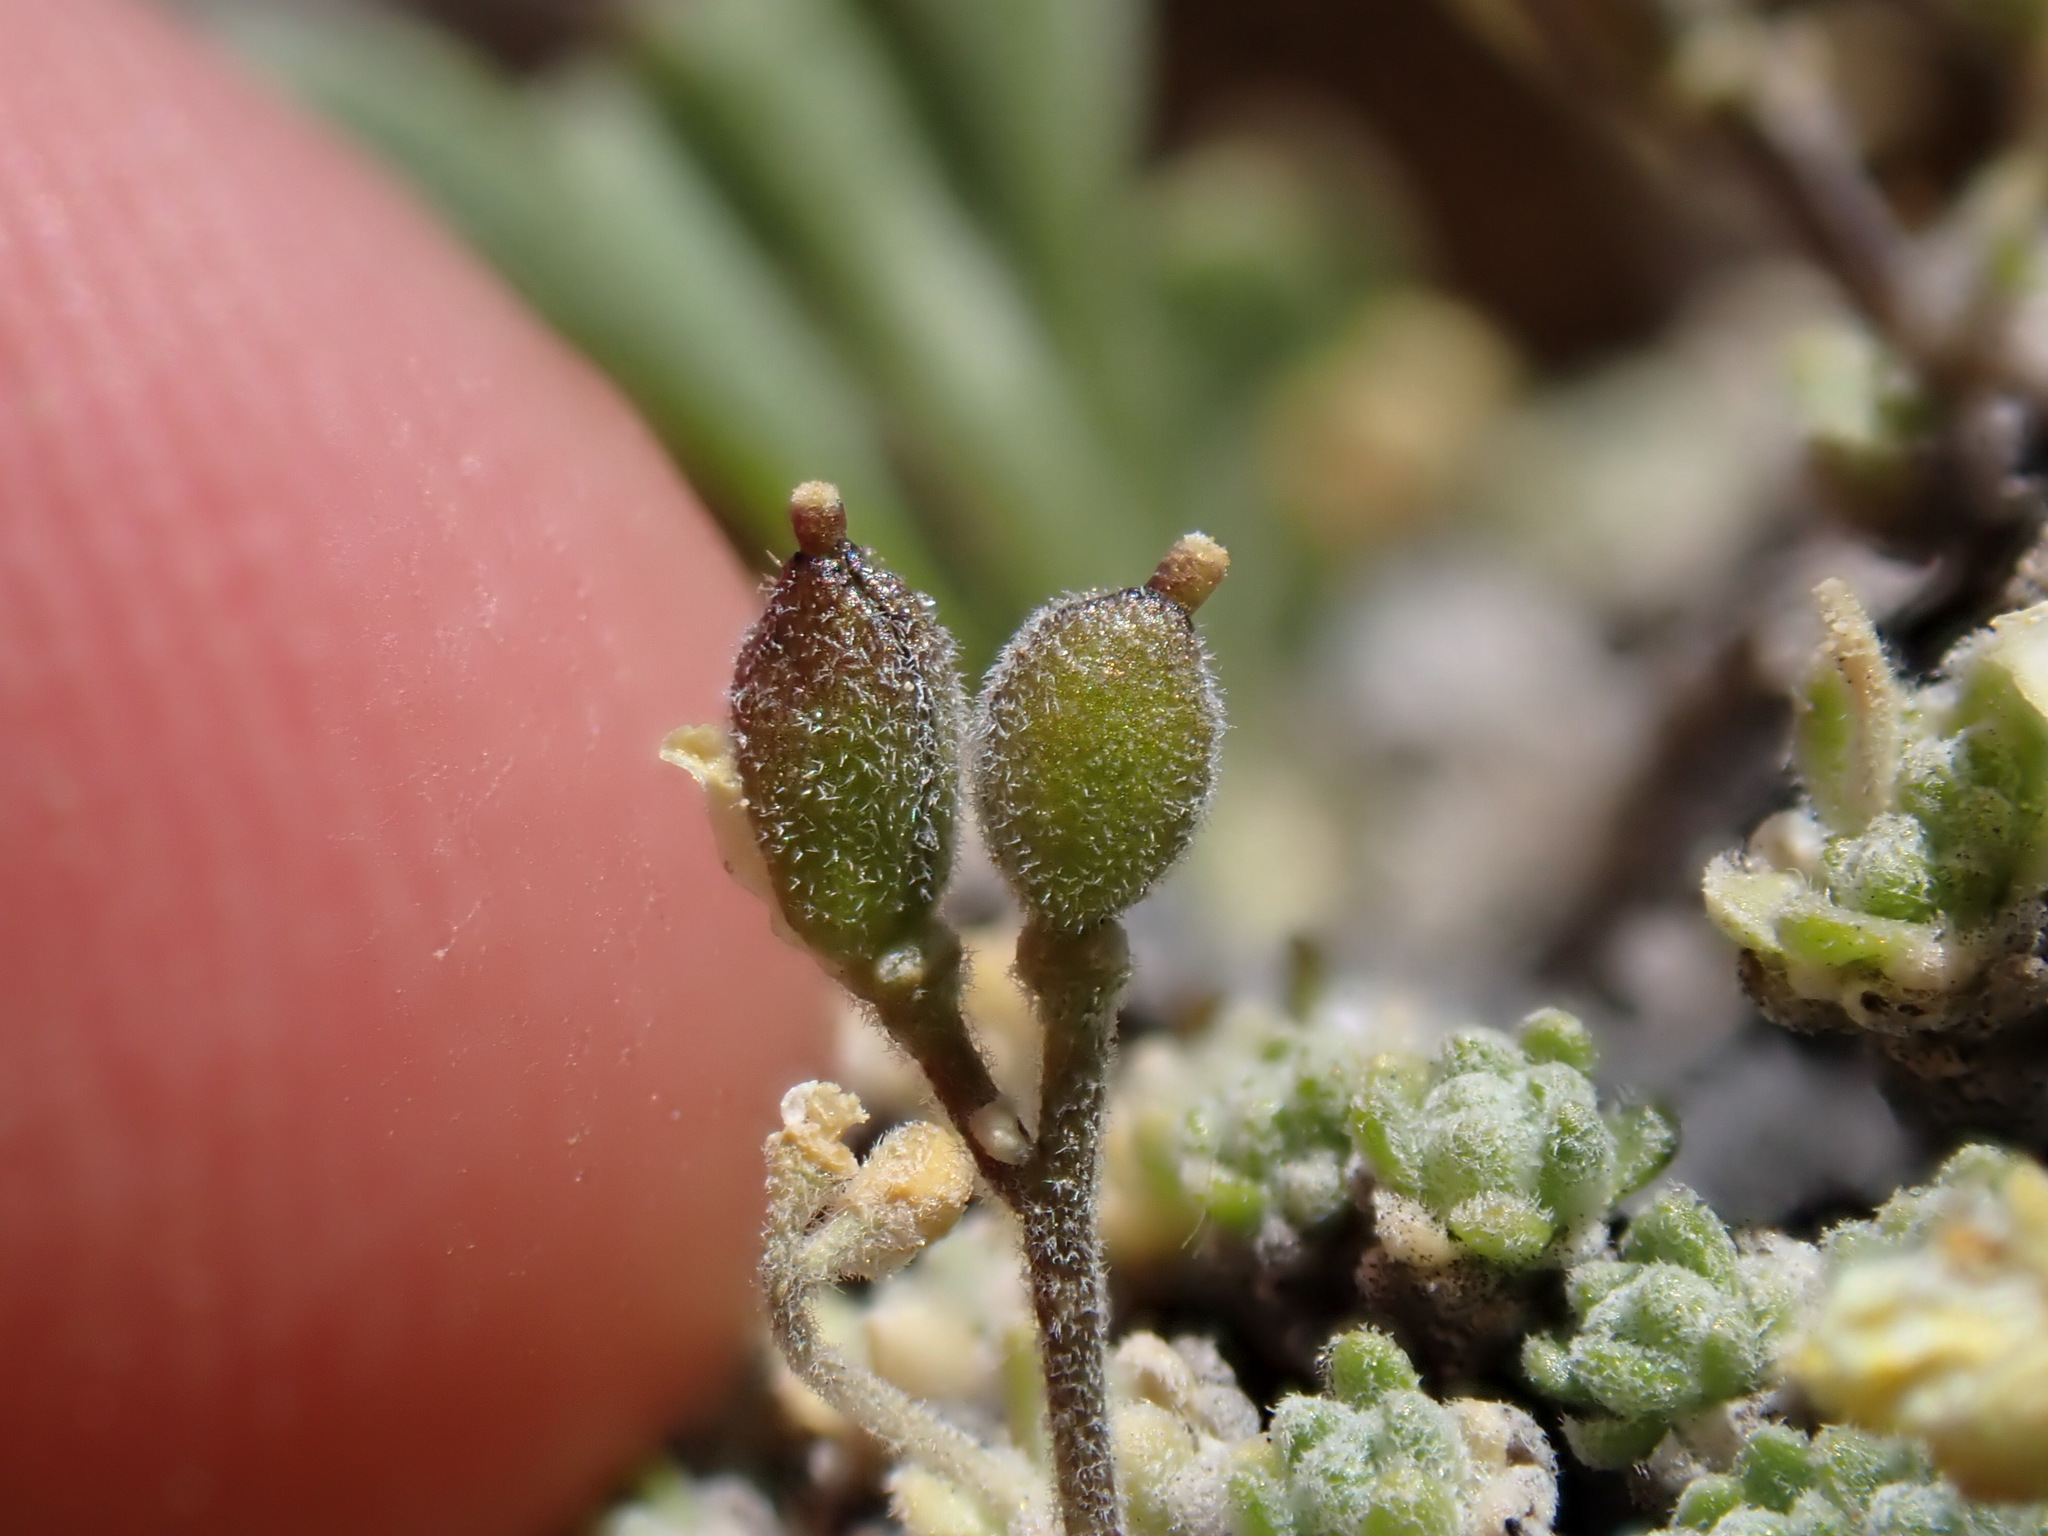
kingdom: Plantae
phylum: Tracheophyta
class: Magnoliopsida
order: Brassicales
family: Brassicaceae
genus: Draba
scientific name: Draba subumbellata
